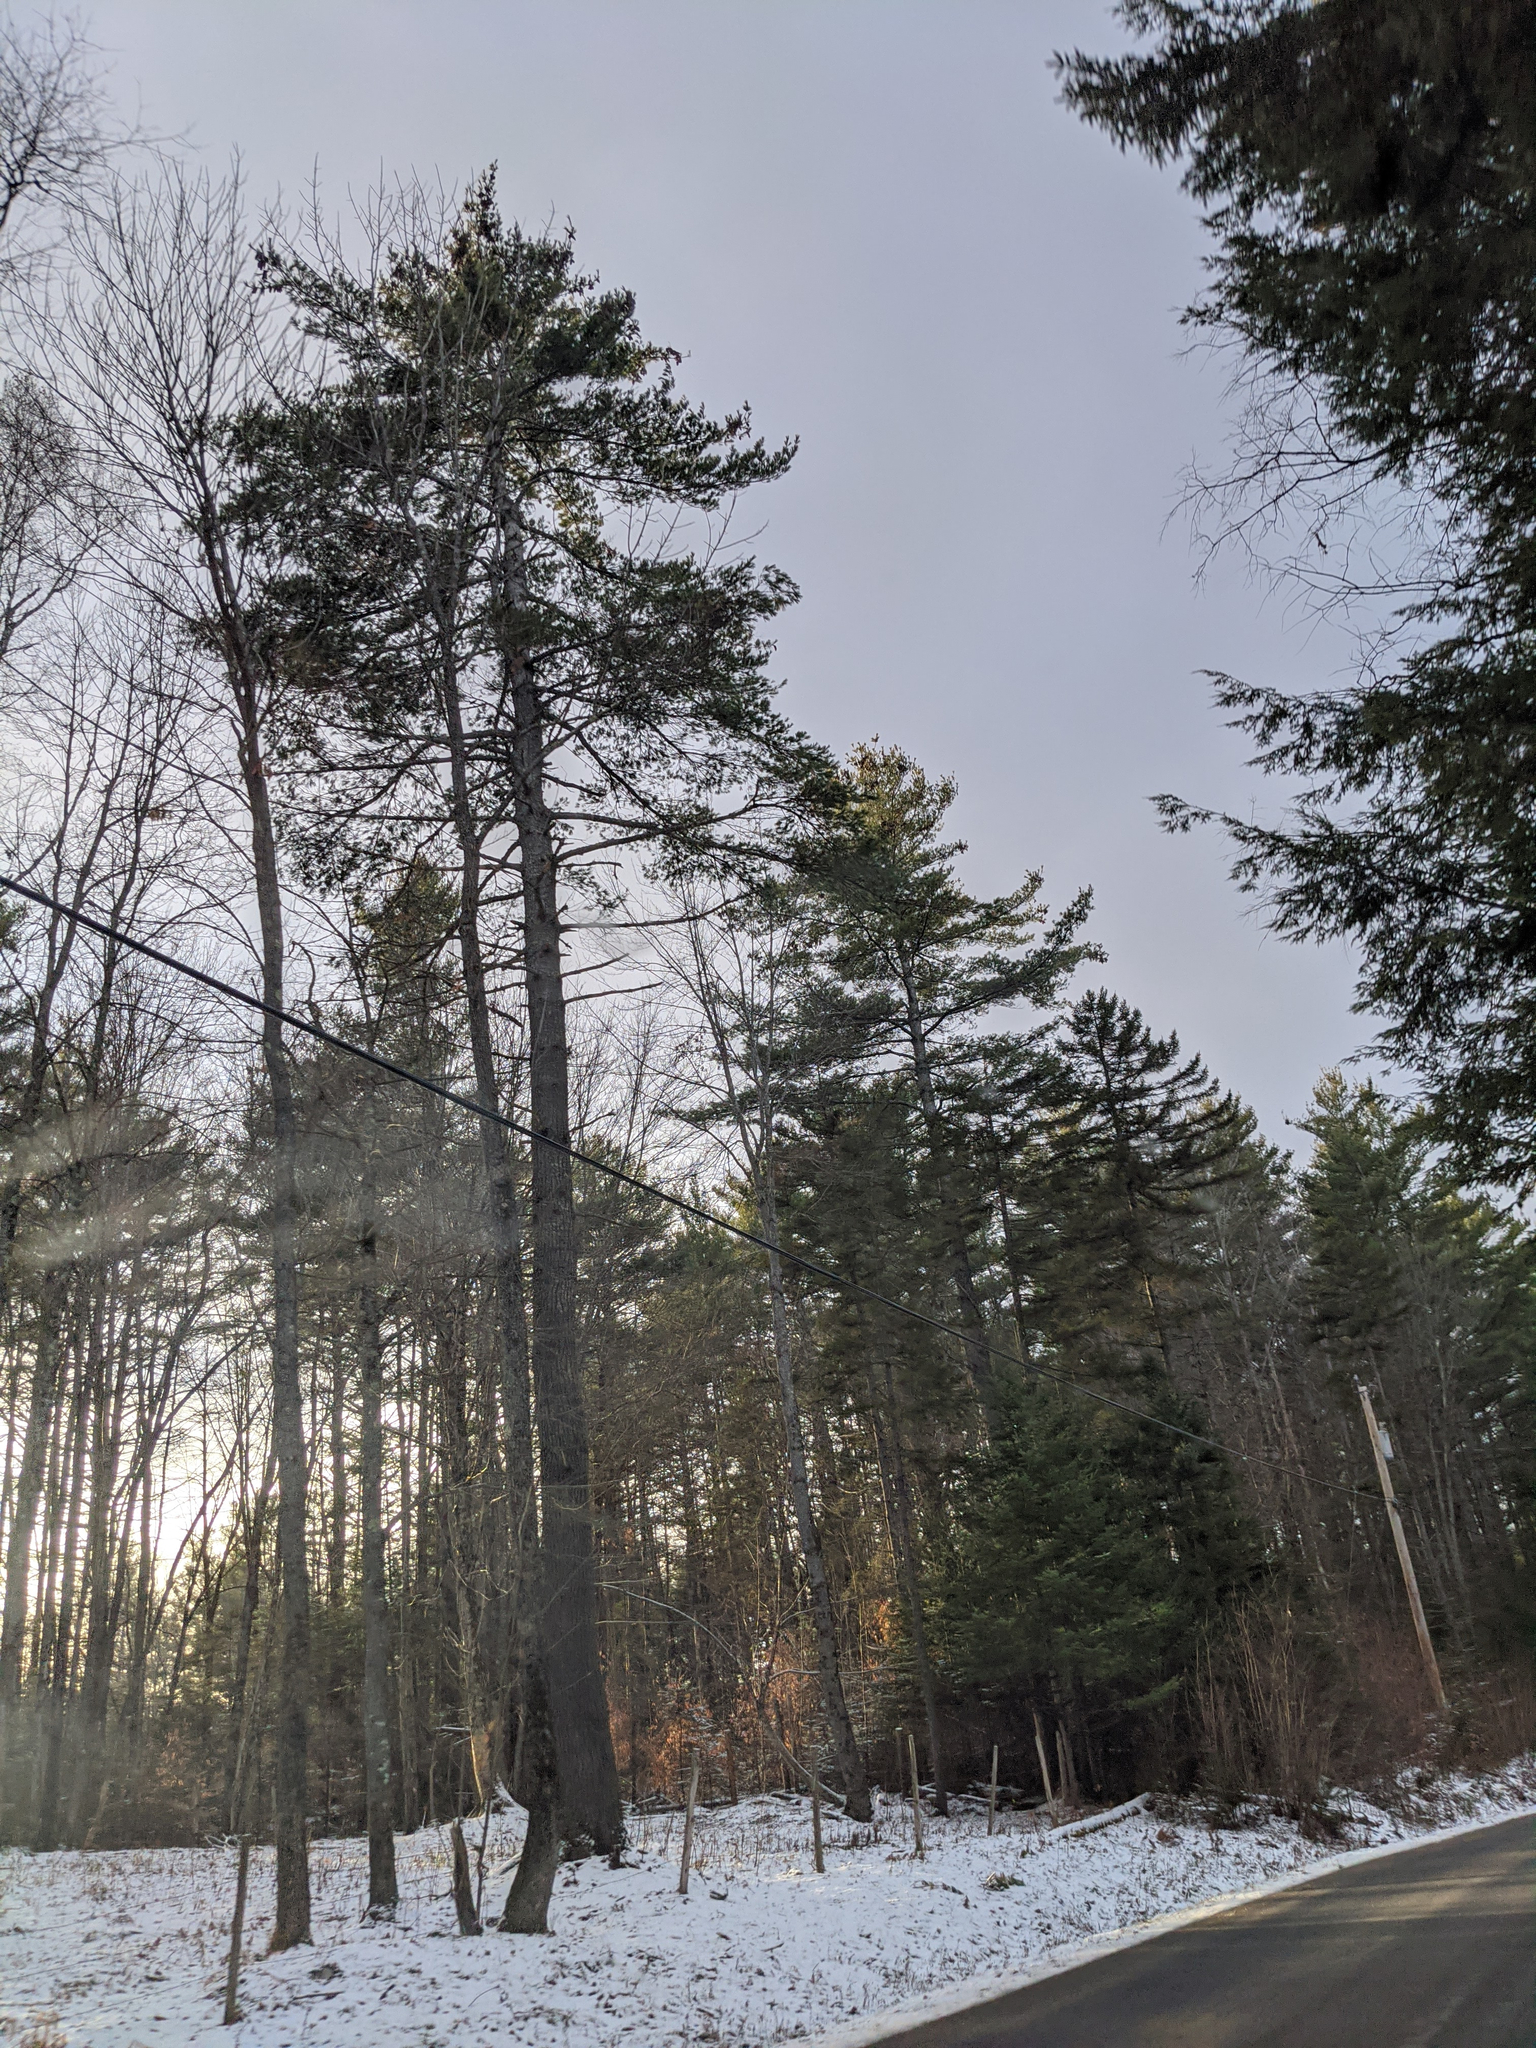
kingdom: Plantae
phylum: Tracheophyta
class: Pinopsida
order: Pinales
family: Pinaceae
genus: Pinus
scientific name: Pinus strobus
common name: Weymouth pine
